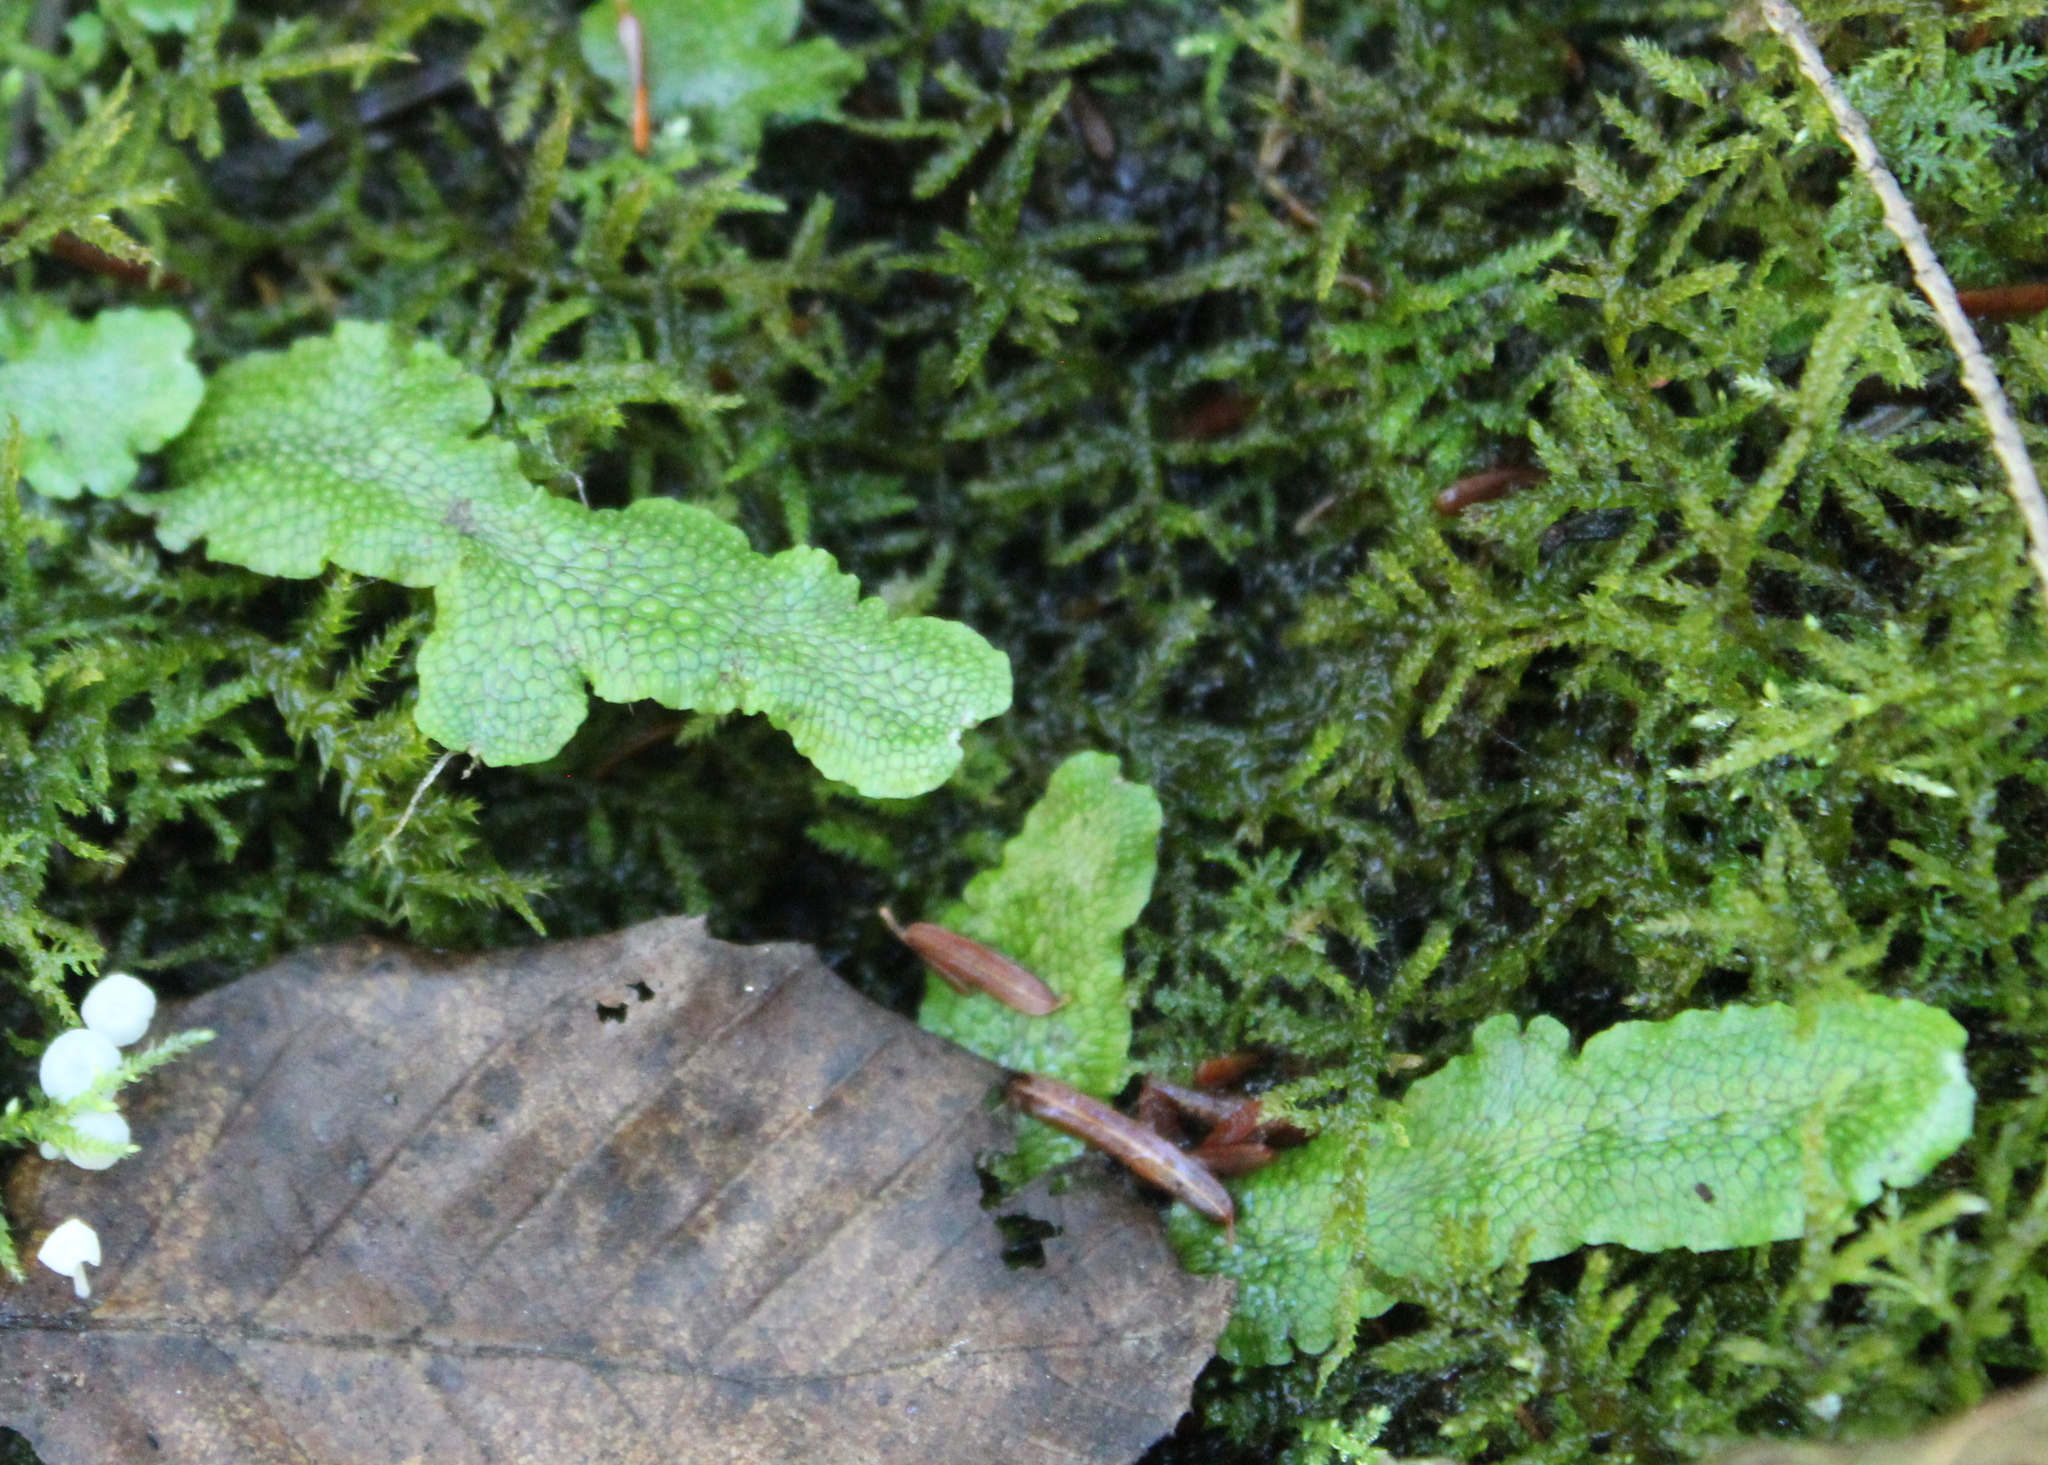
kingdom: Plantae
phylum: Marchantiophyta
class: Marchantiopsida
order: Marchantiales
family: Conocephalaceae
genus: Conocephalum
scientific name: Conocephalum salebrosum
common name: Cat-tongue liverwort
